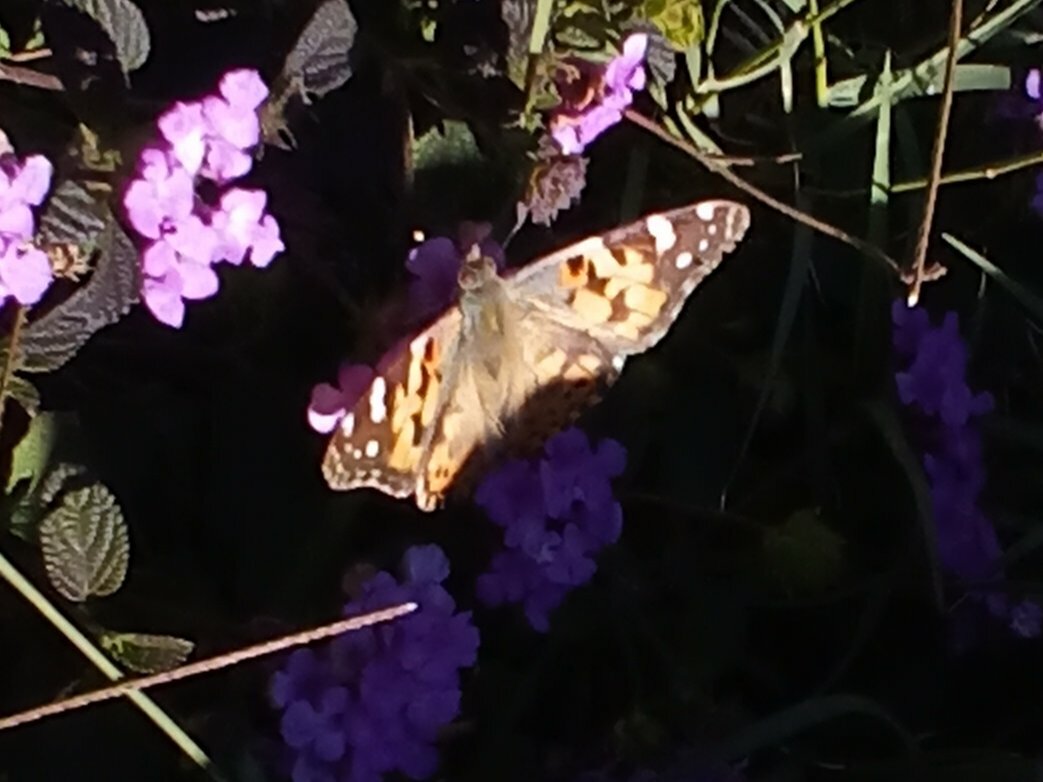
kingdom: Animalia
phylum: Arthropoda
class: Insecta
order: Lepidoptera
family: Nymphalidae
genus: Vanessa
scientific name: Vanessa cardui
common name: Painted lady
